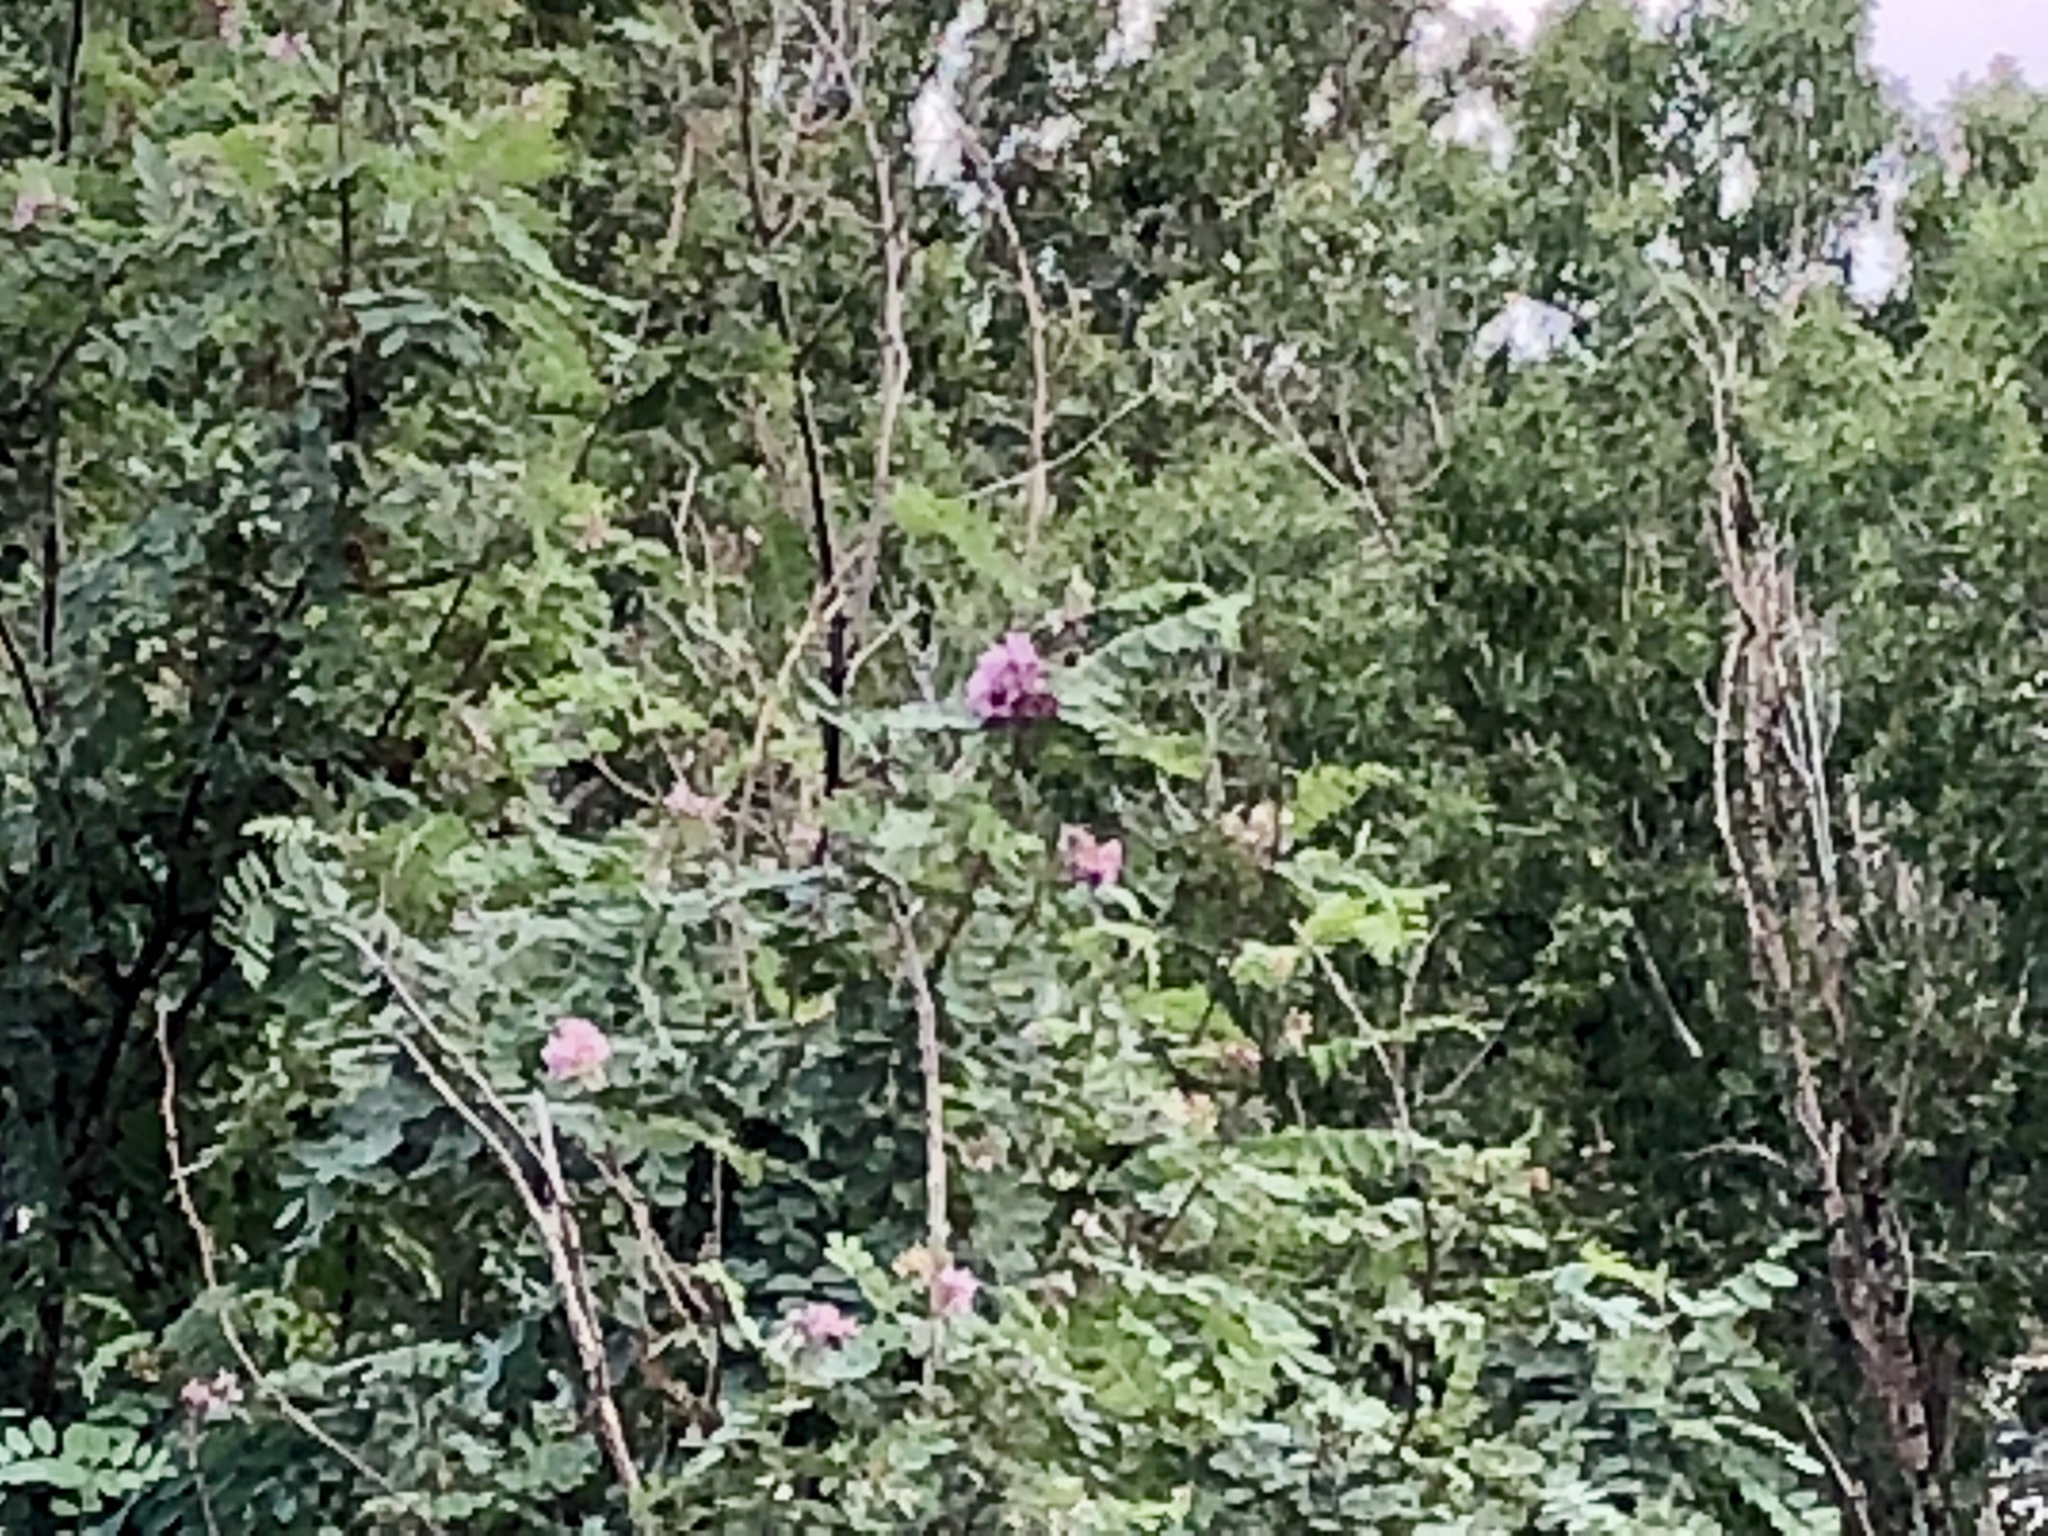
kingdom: Plantae
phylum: Tracheophyta
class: Magnoliopsida
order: Fabales
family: Fabaceae
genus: Robinia
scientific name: Robinia neomexicana
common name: New mexico locust
